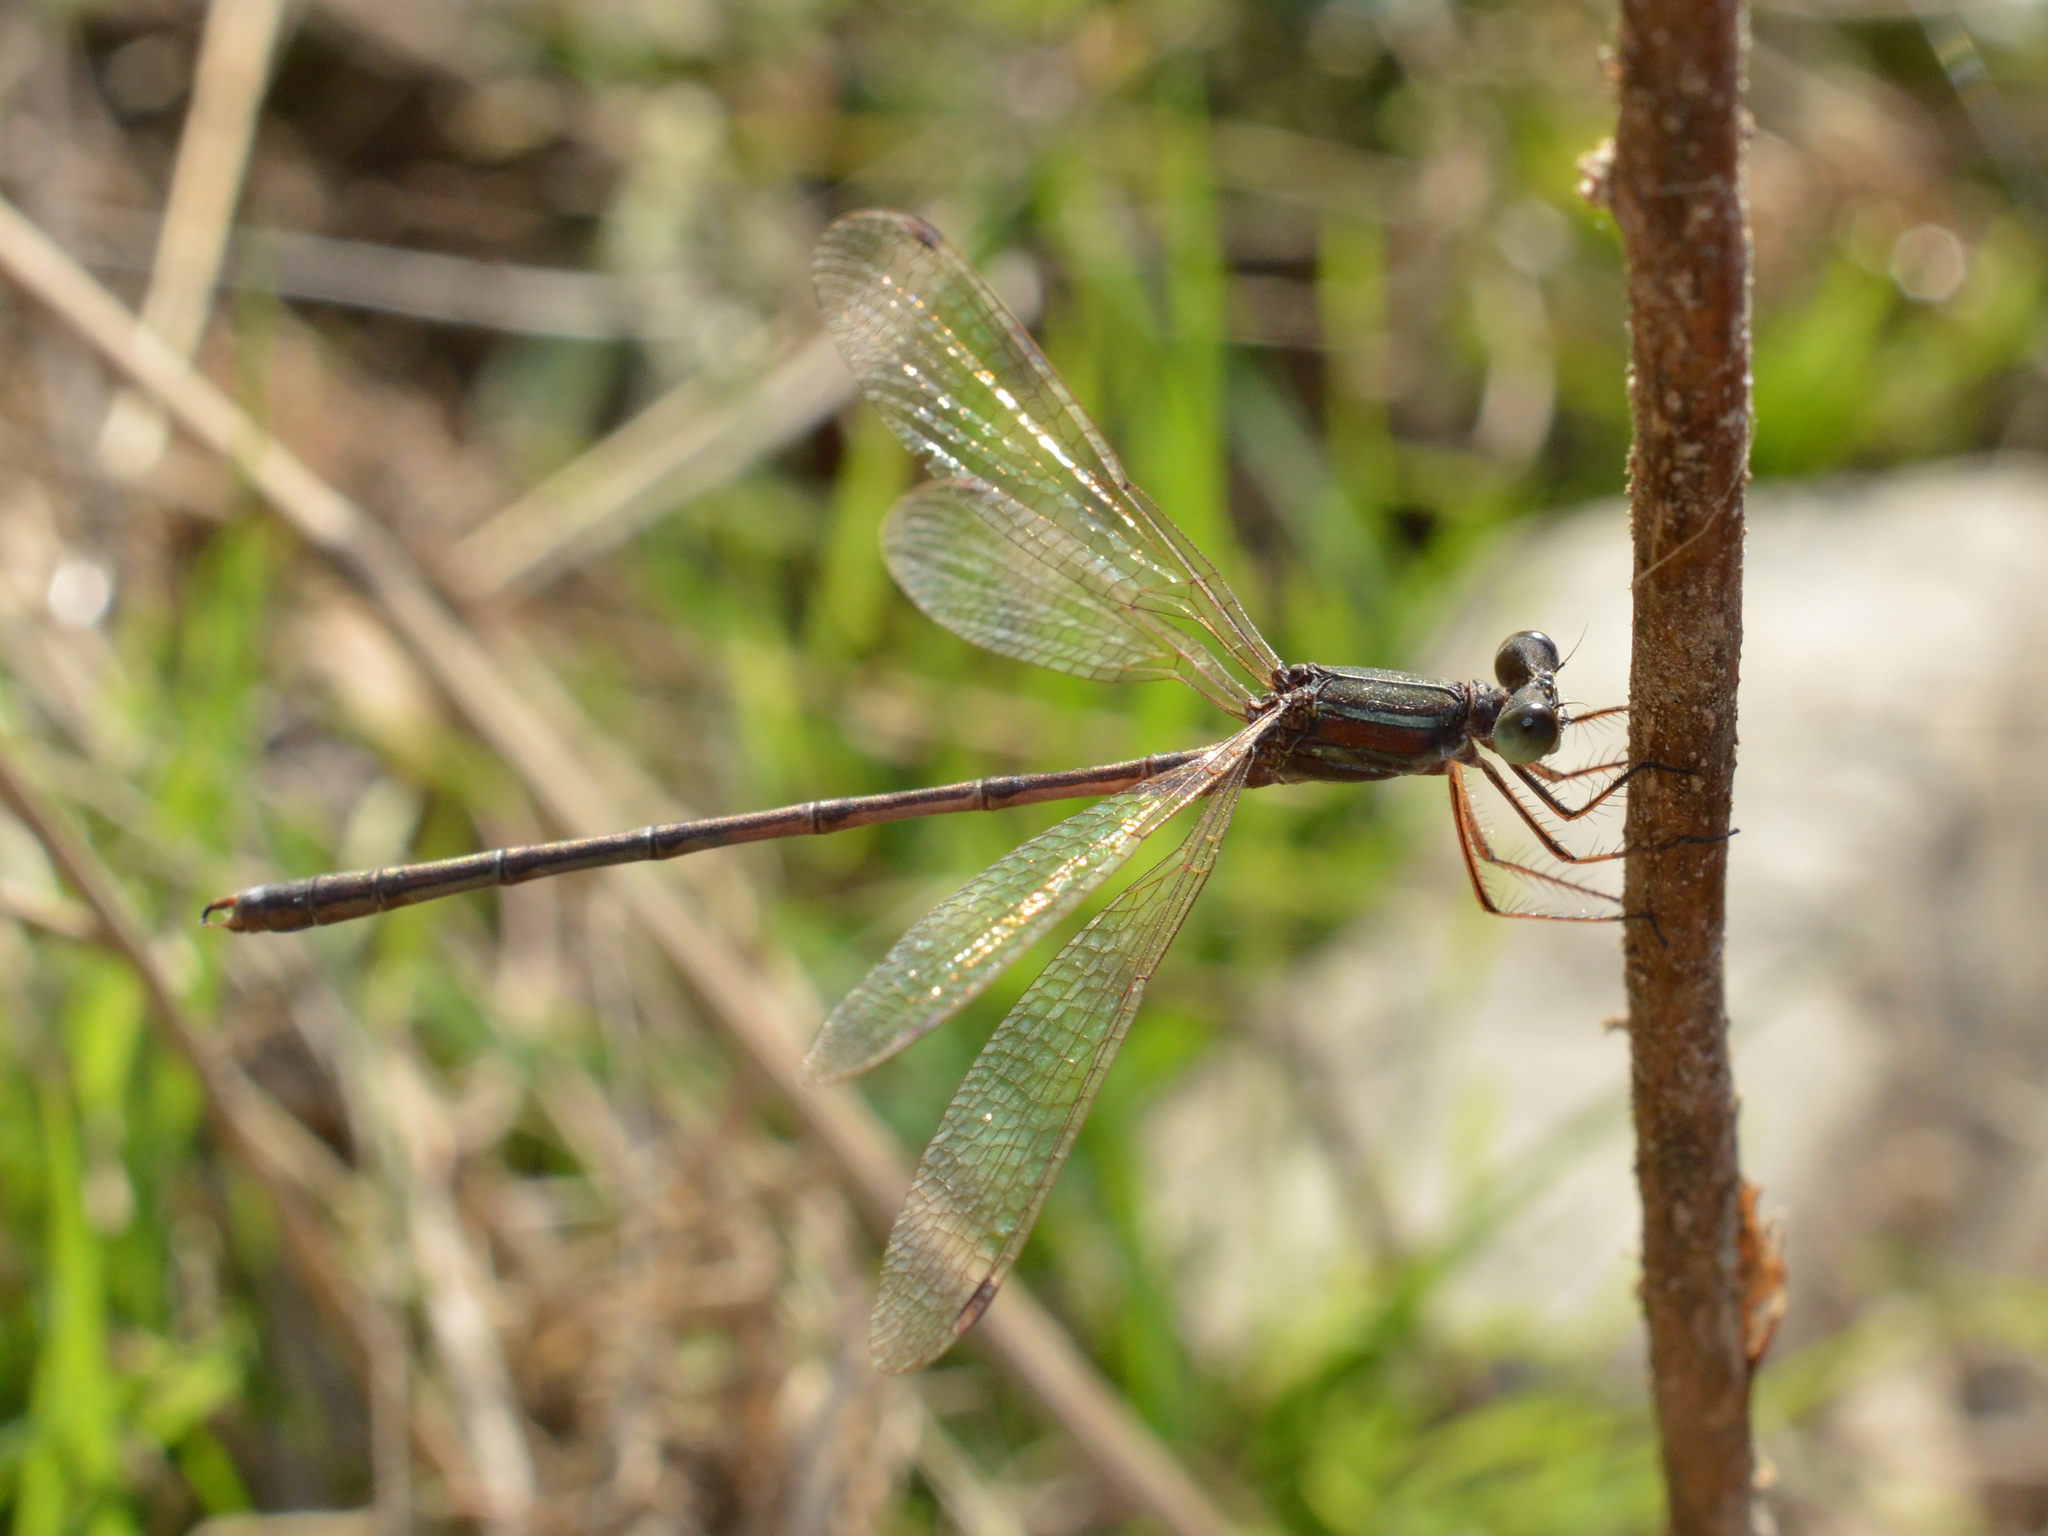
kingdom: Animalia
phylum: Arthropoda
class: Insecta
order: Odonata
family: Lestidae
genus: Lestes
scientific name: Lestes barbarus
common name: Migrant spreadwing
